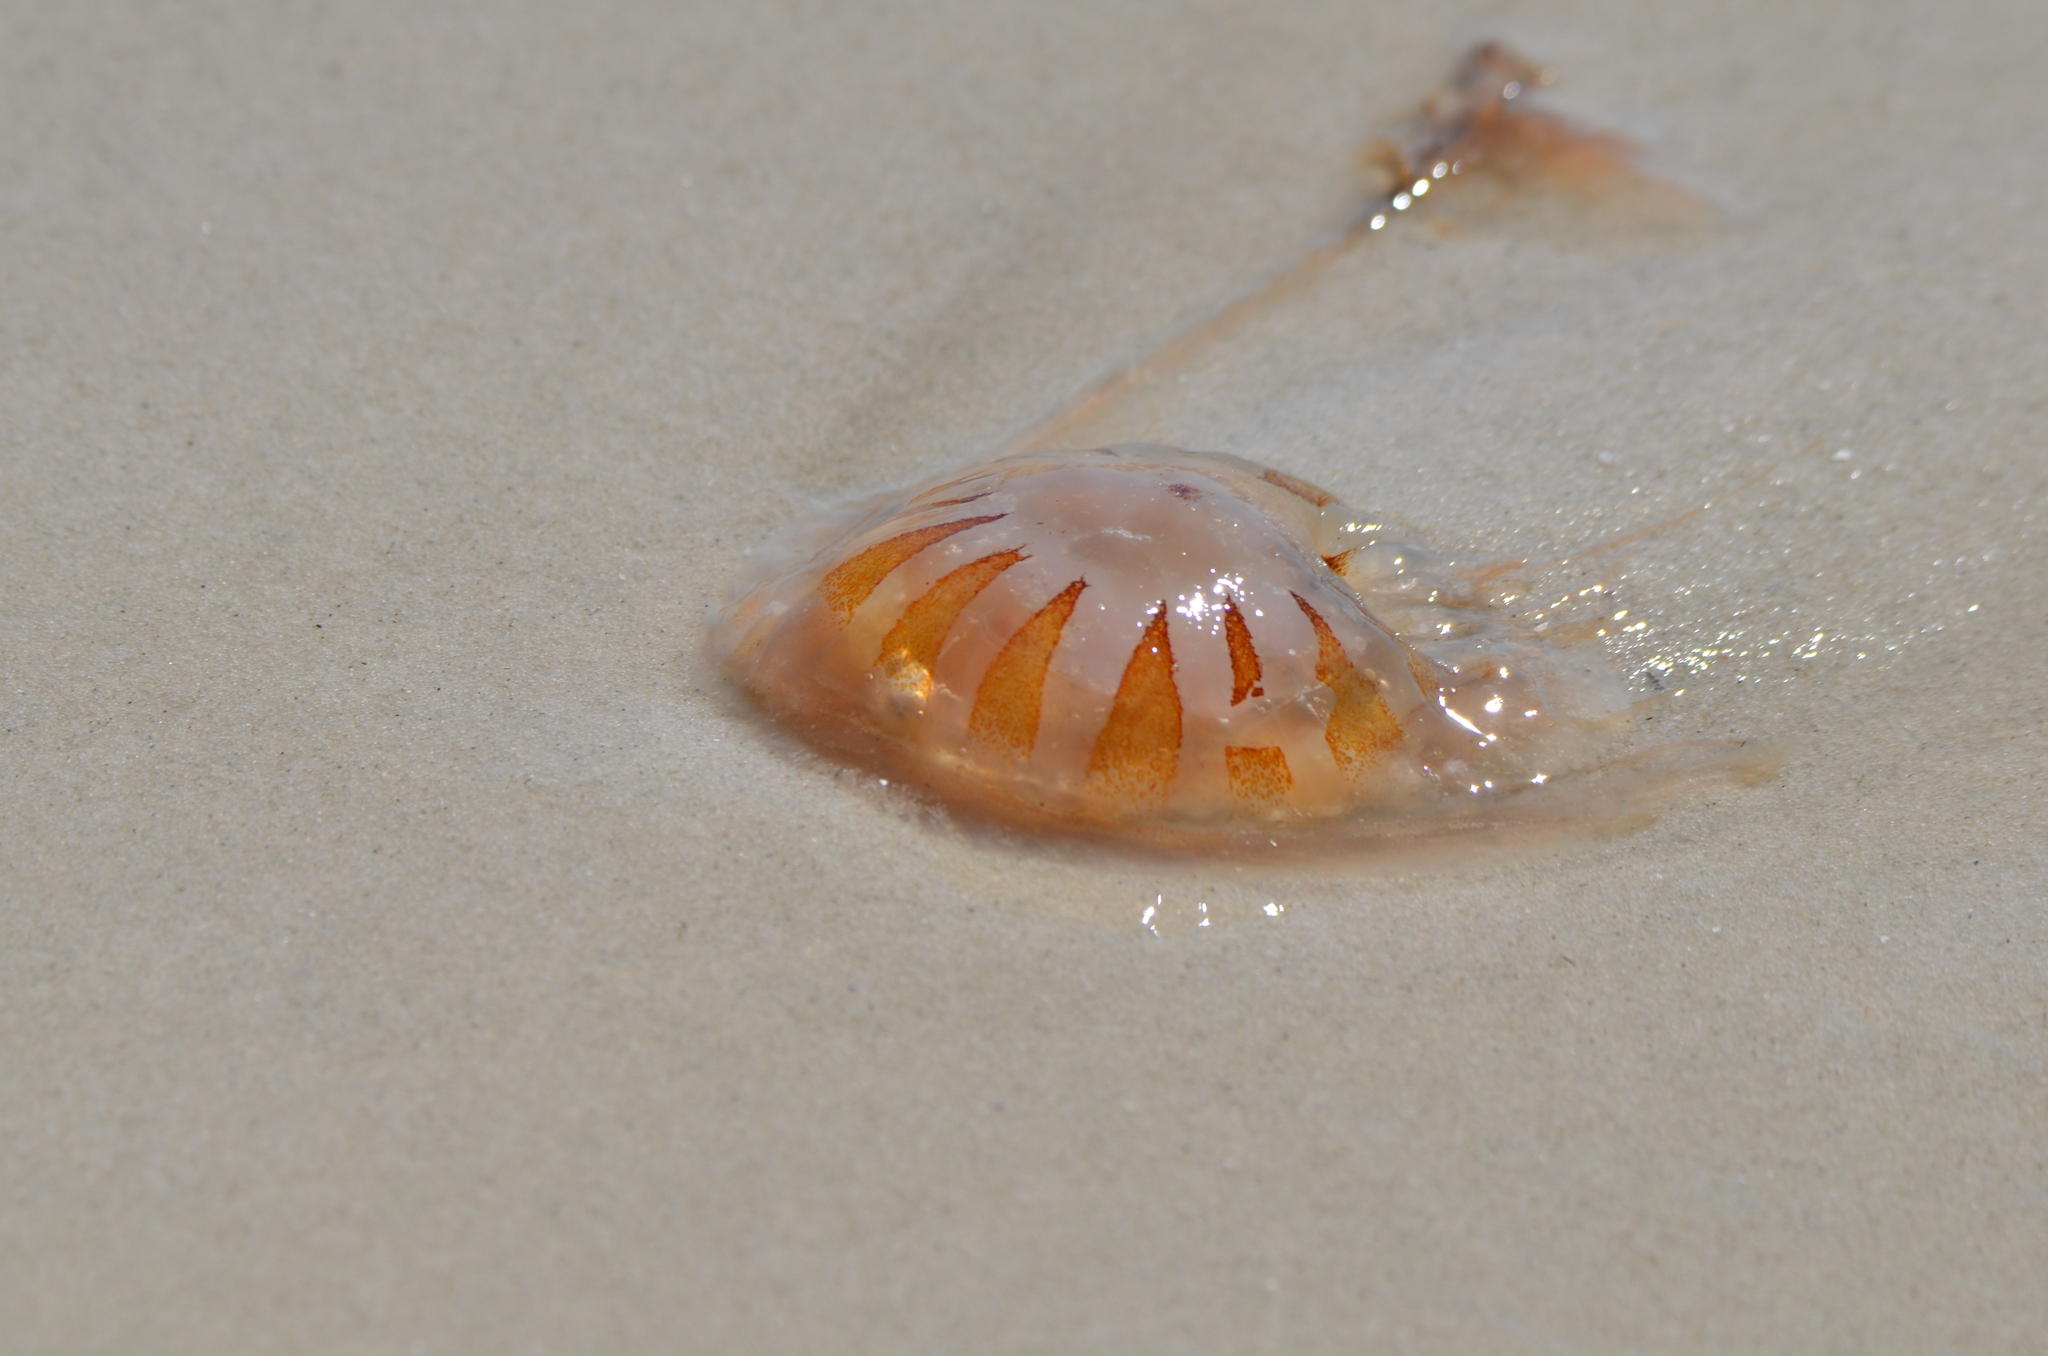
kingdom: Animalia
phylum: Cnidaria
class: Scyphozoa
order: Semaeostomeae
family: Pelagiidae
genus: Chrysaora
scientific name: Chrysaora quinquecirrha
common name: Atlantic sea nettle
